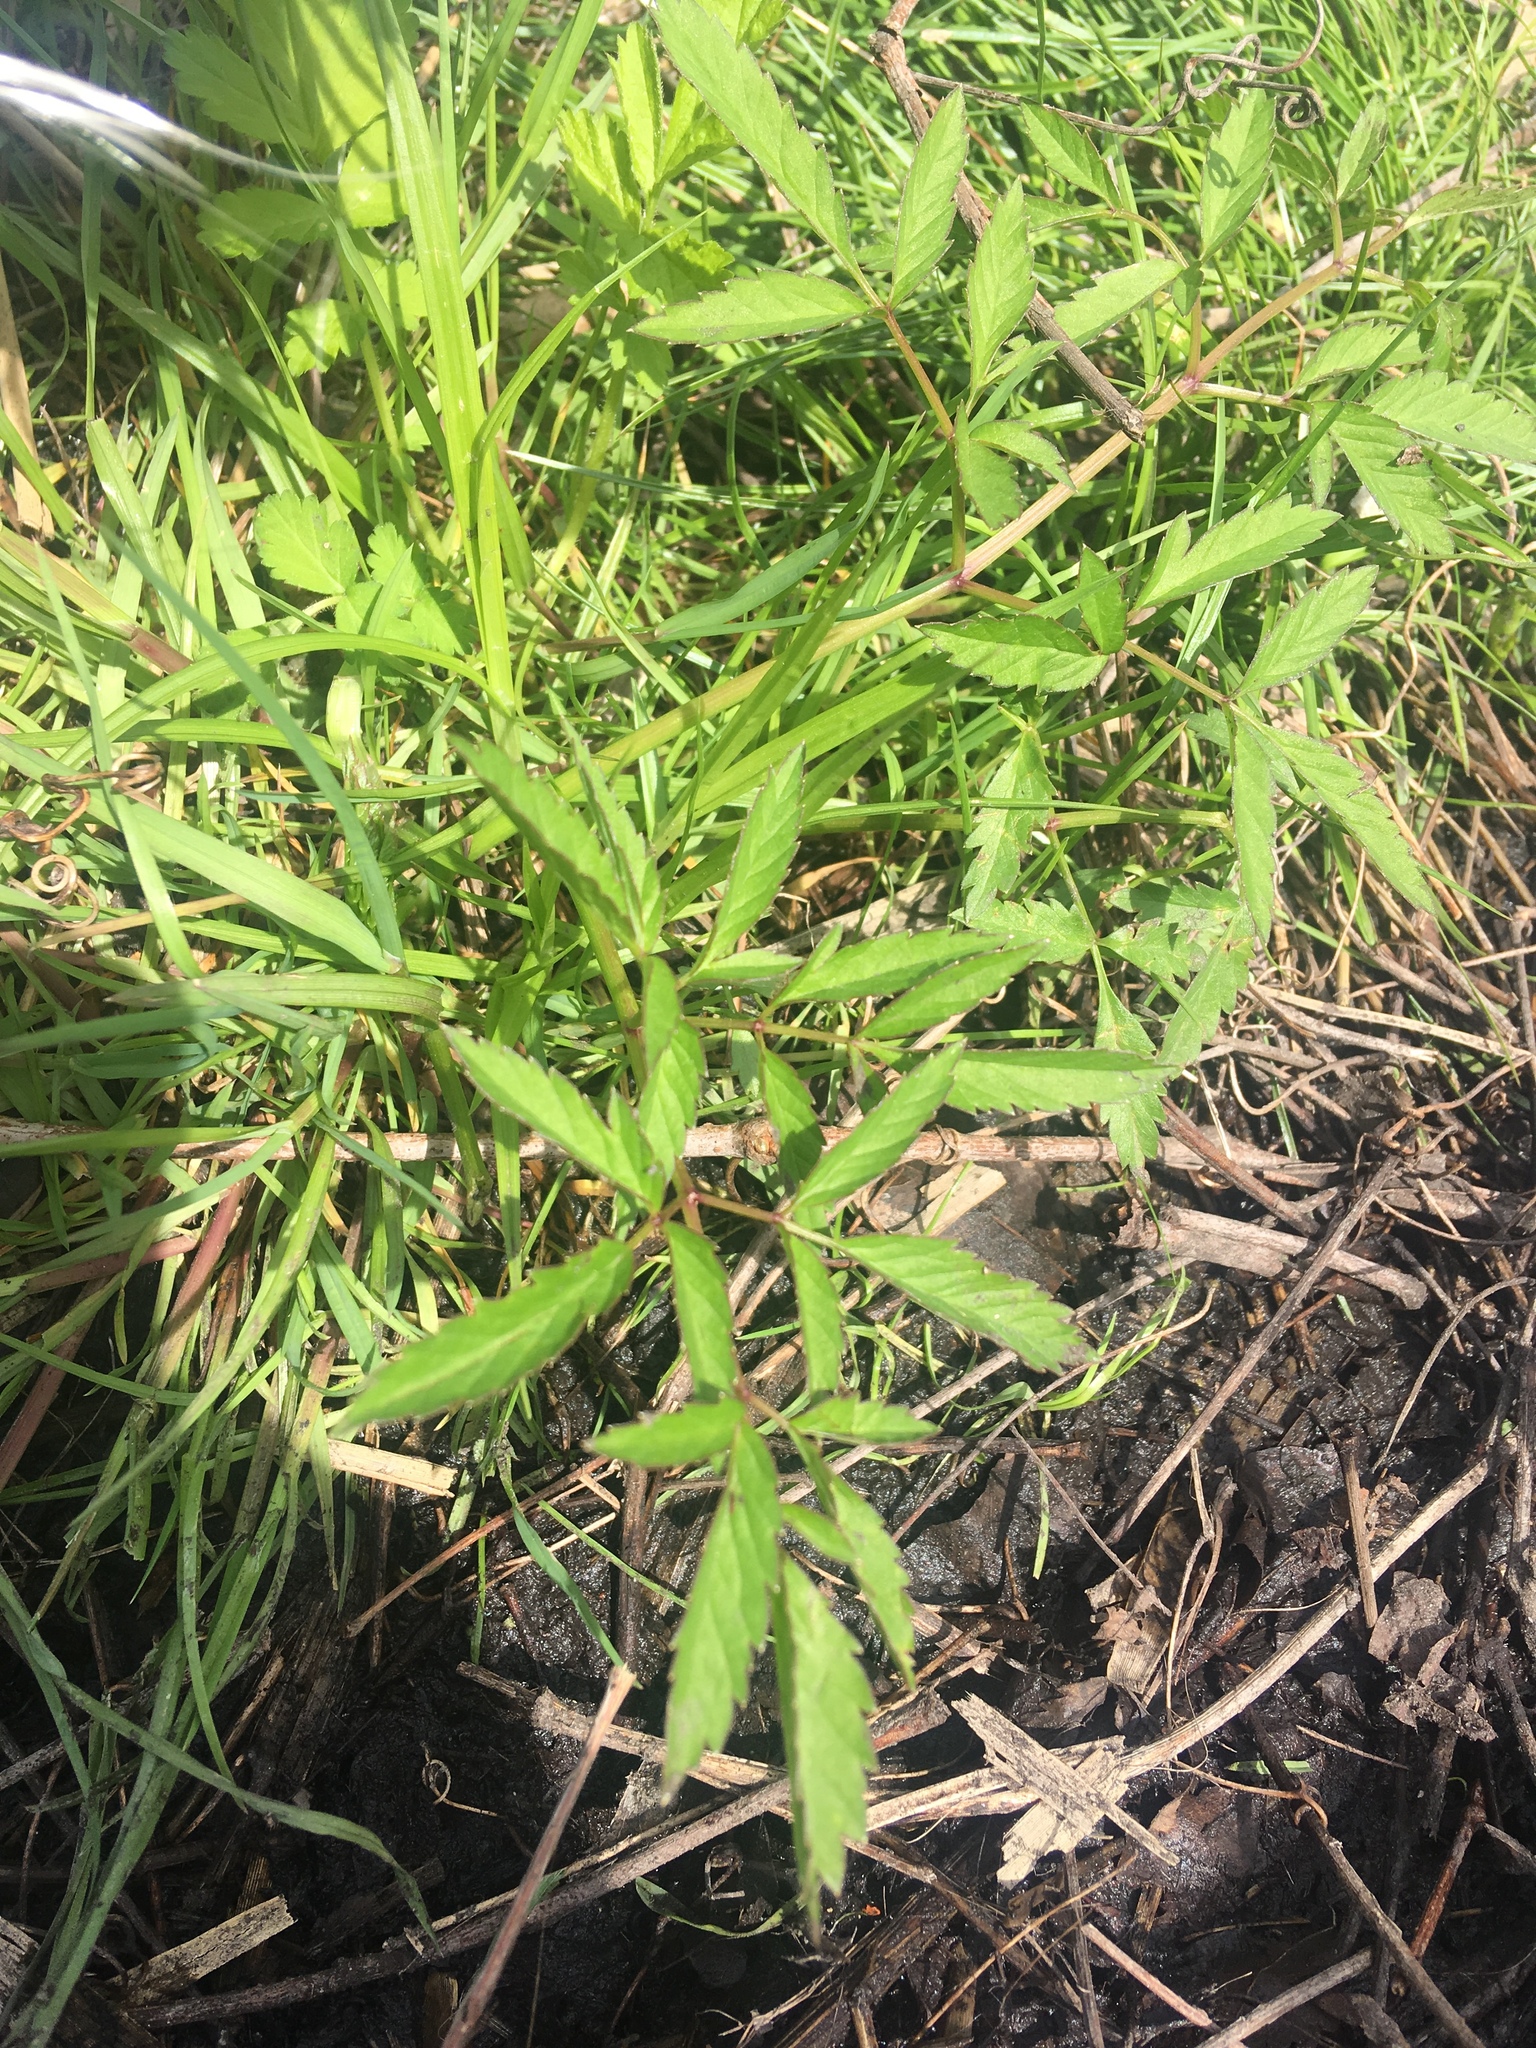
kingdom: Plantae
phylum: Tracheophyta
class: Magnoliopsida
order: Apiales
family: Apiaceae
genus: Cicuta
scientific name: Cicuta maculata
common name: Spotted cowbane
